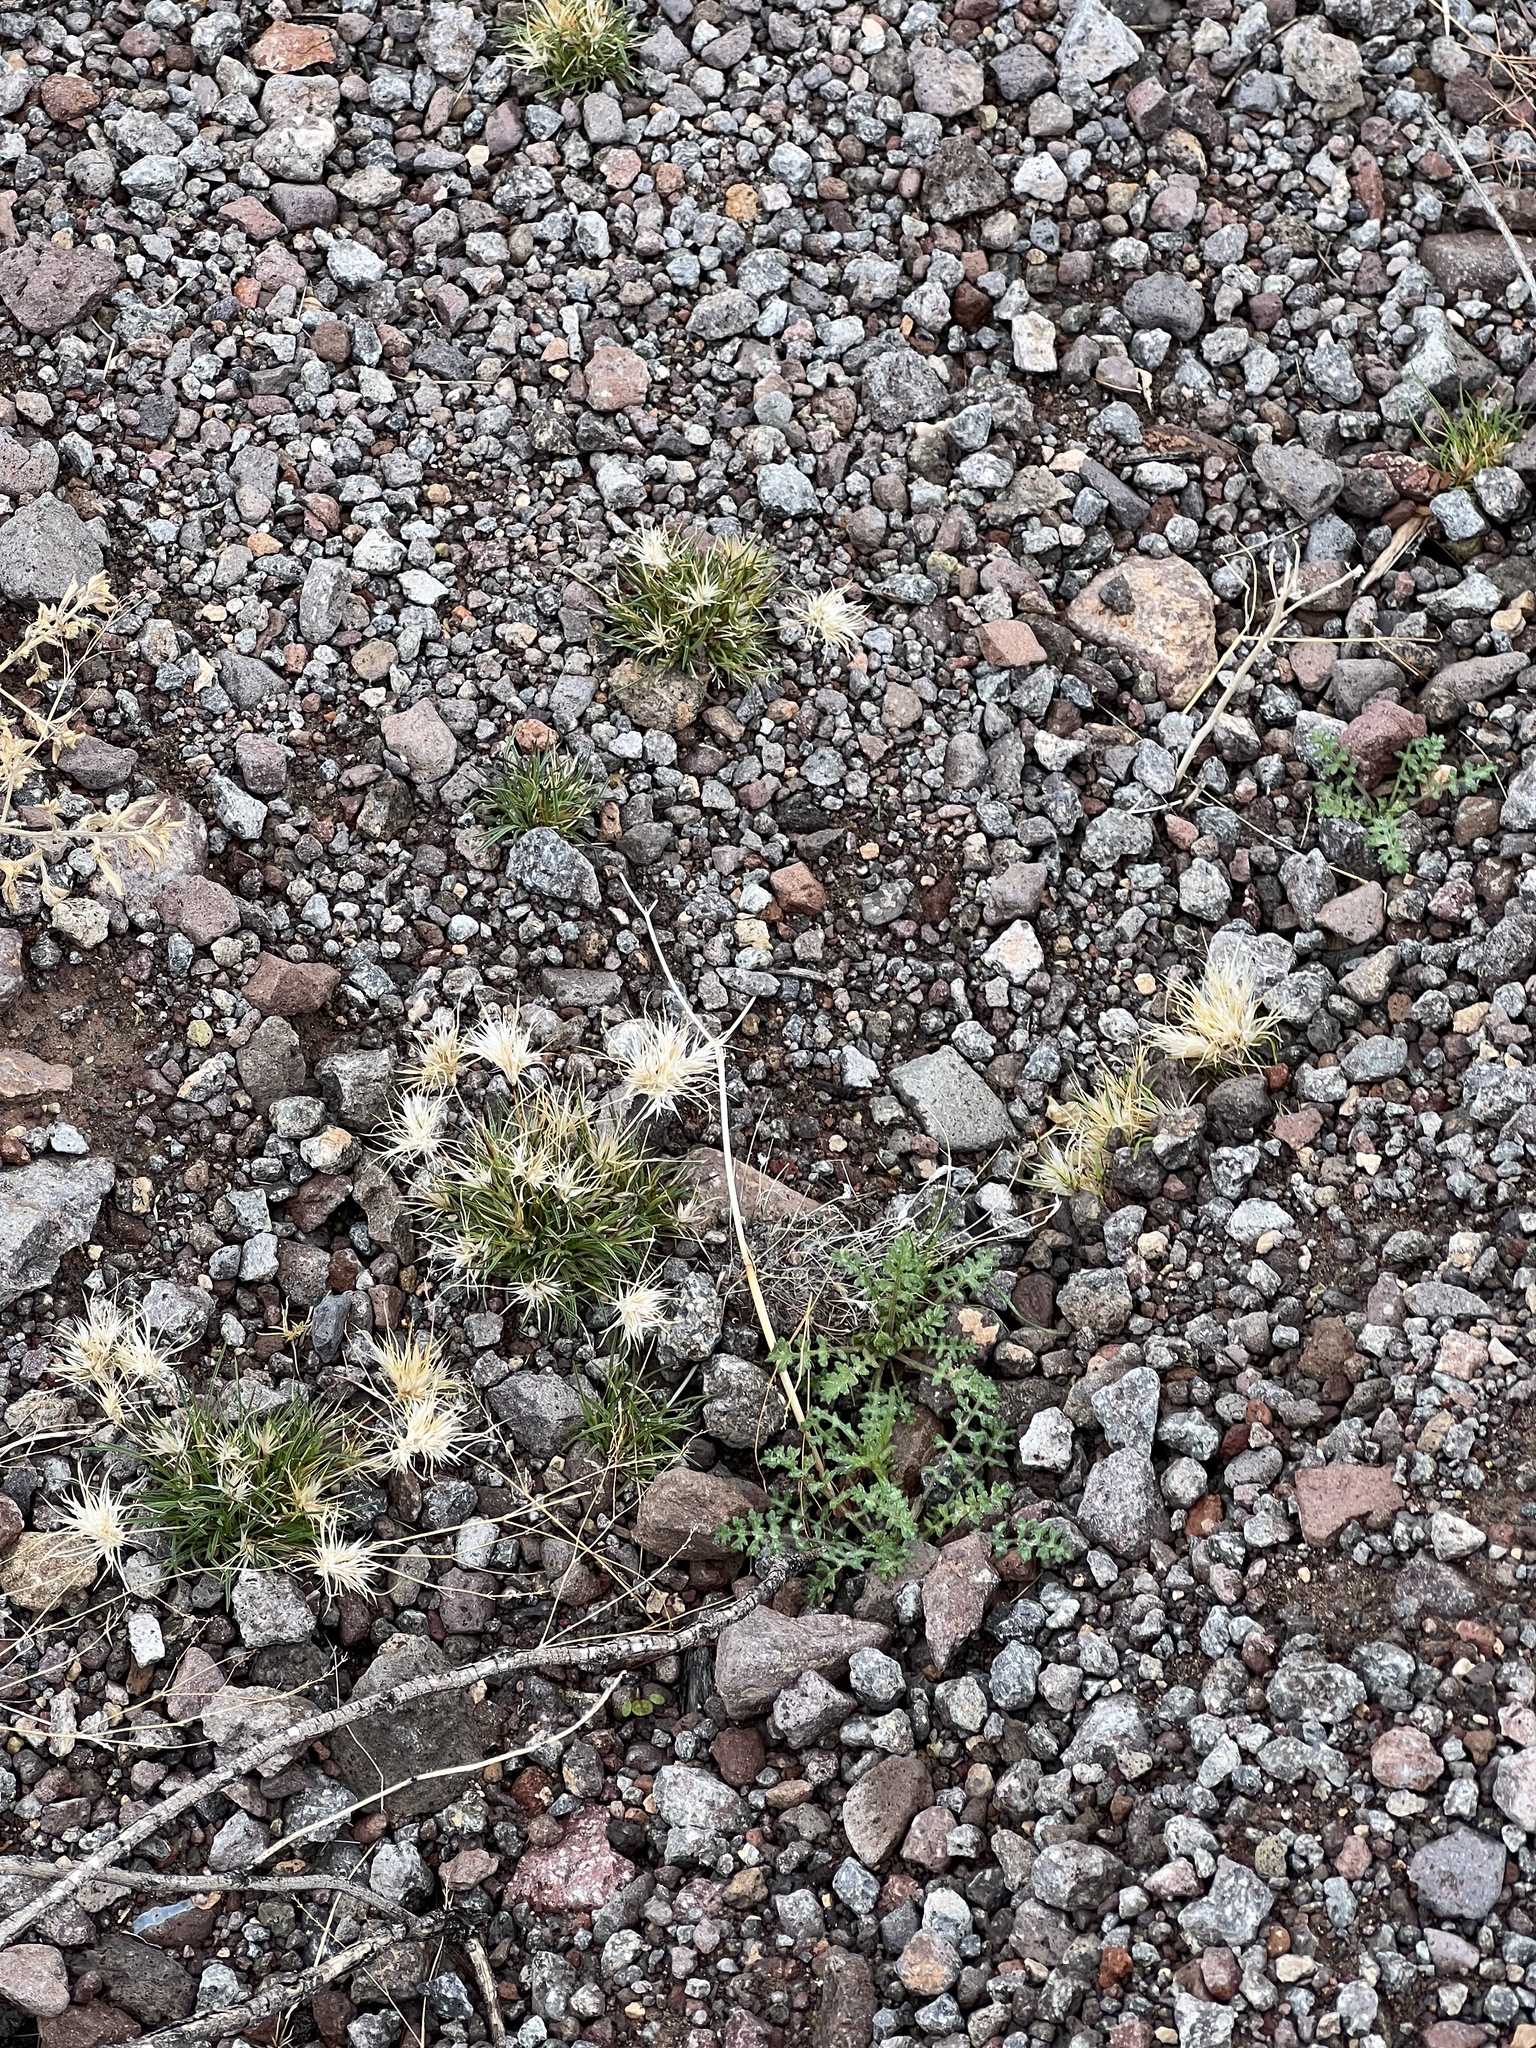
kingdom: Plantae
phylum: Tracheophyta
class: Liliopsida
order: Poales
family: Poaceae
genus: Dasyochloa
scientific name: Dasyochloa pulchella
